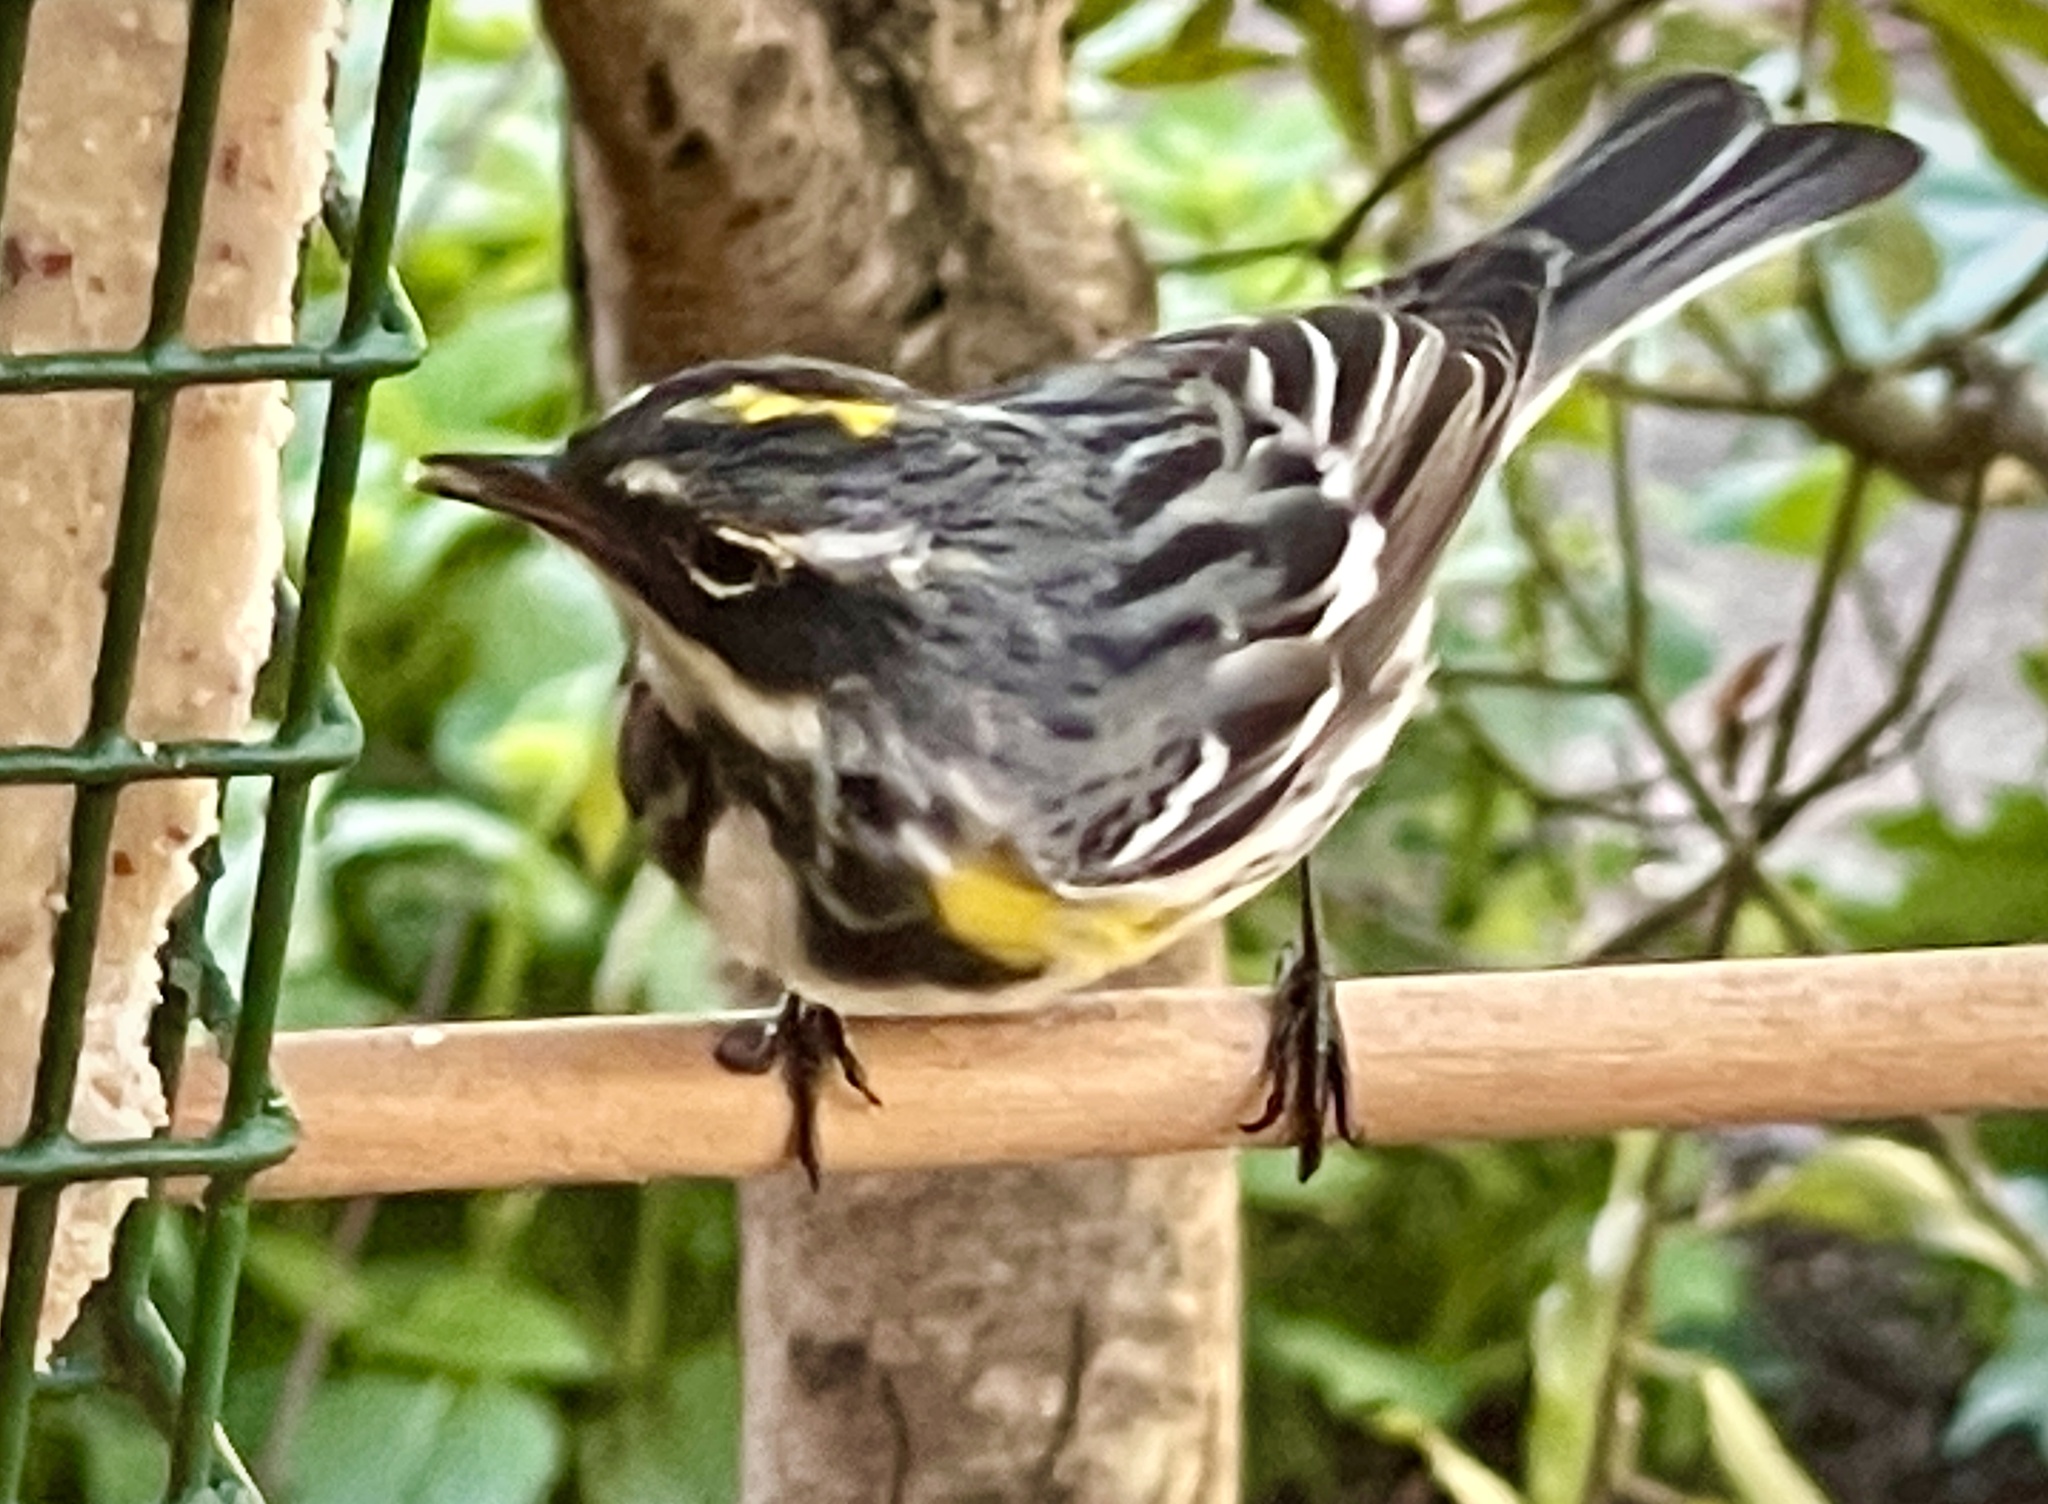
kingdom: Animalia
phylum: Chordata
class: Aves
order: Passeriformes
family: Parulidae
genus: Setophaga
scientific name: Setophaga coronata
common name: Myrtle warbler
